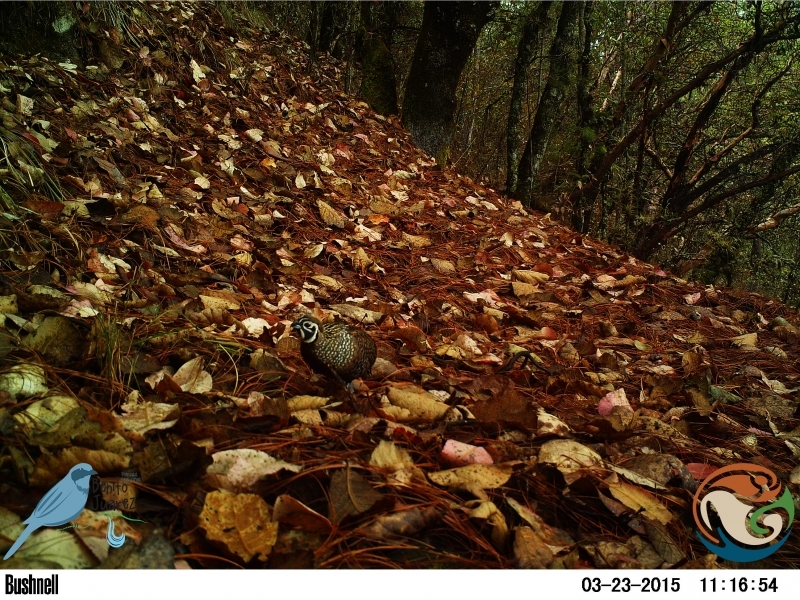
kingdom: Animalia
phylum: Chordata
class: Aves
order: Galliformes
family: Odontophoridae
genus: Cyrtonyx
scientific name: Cyrtonyx montezumae
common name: Montezuma quail
